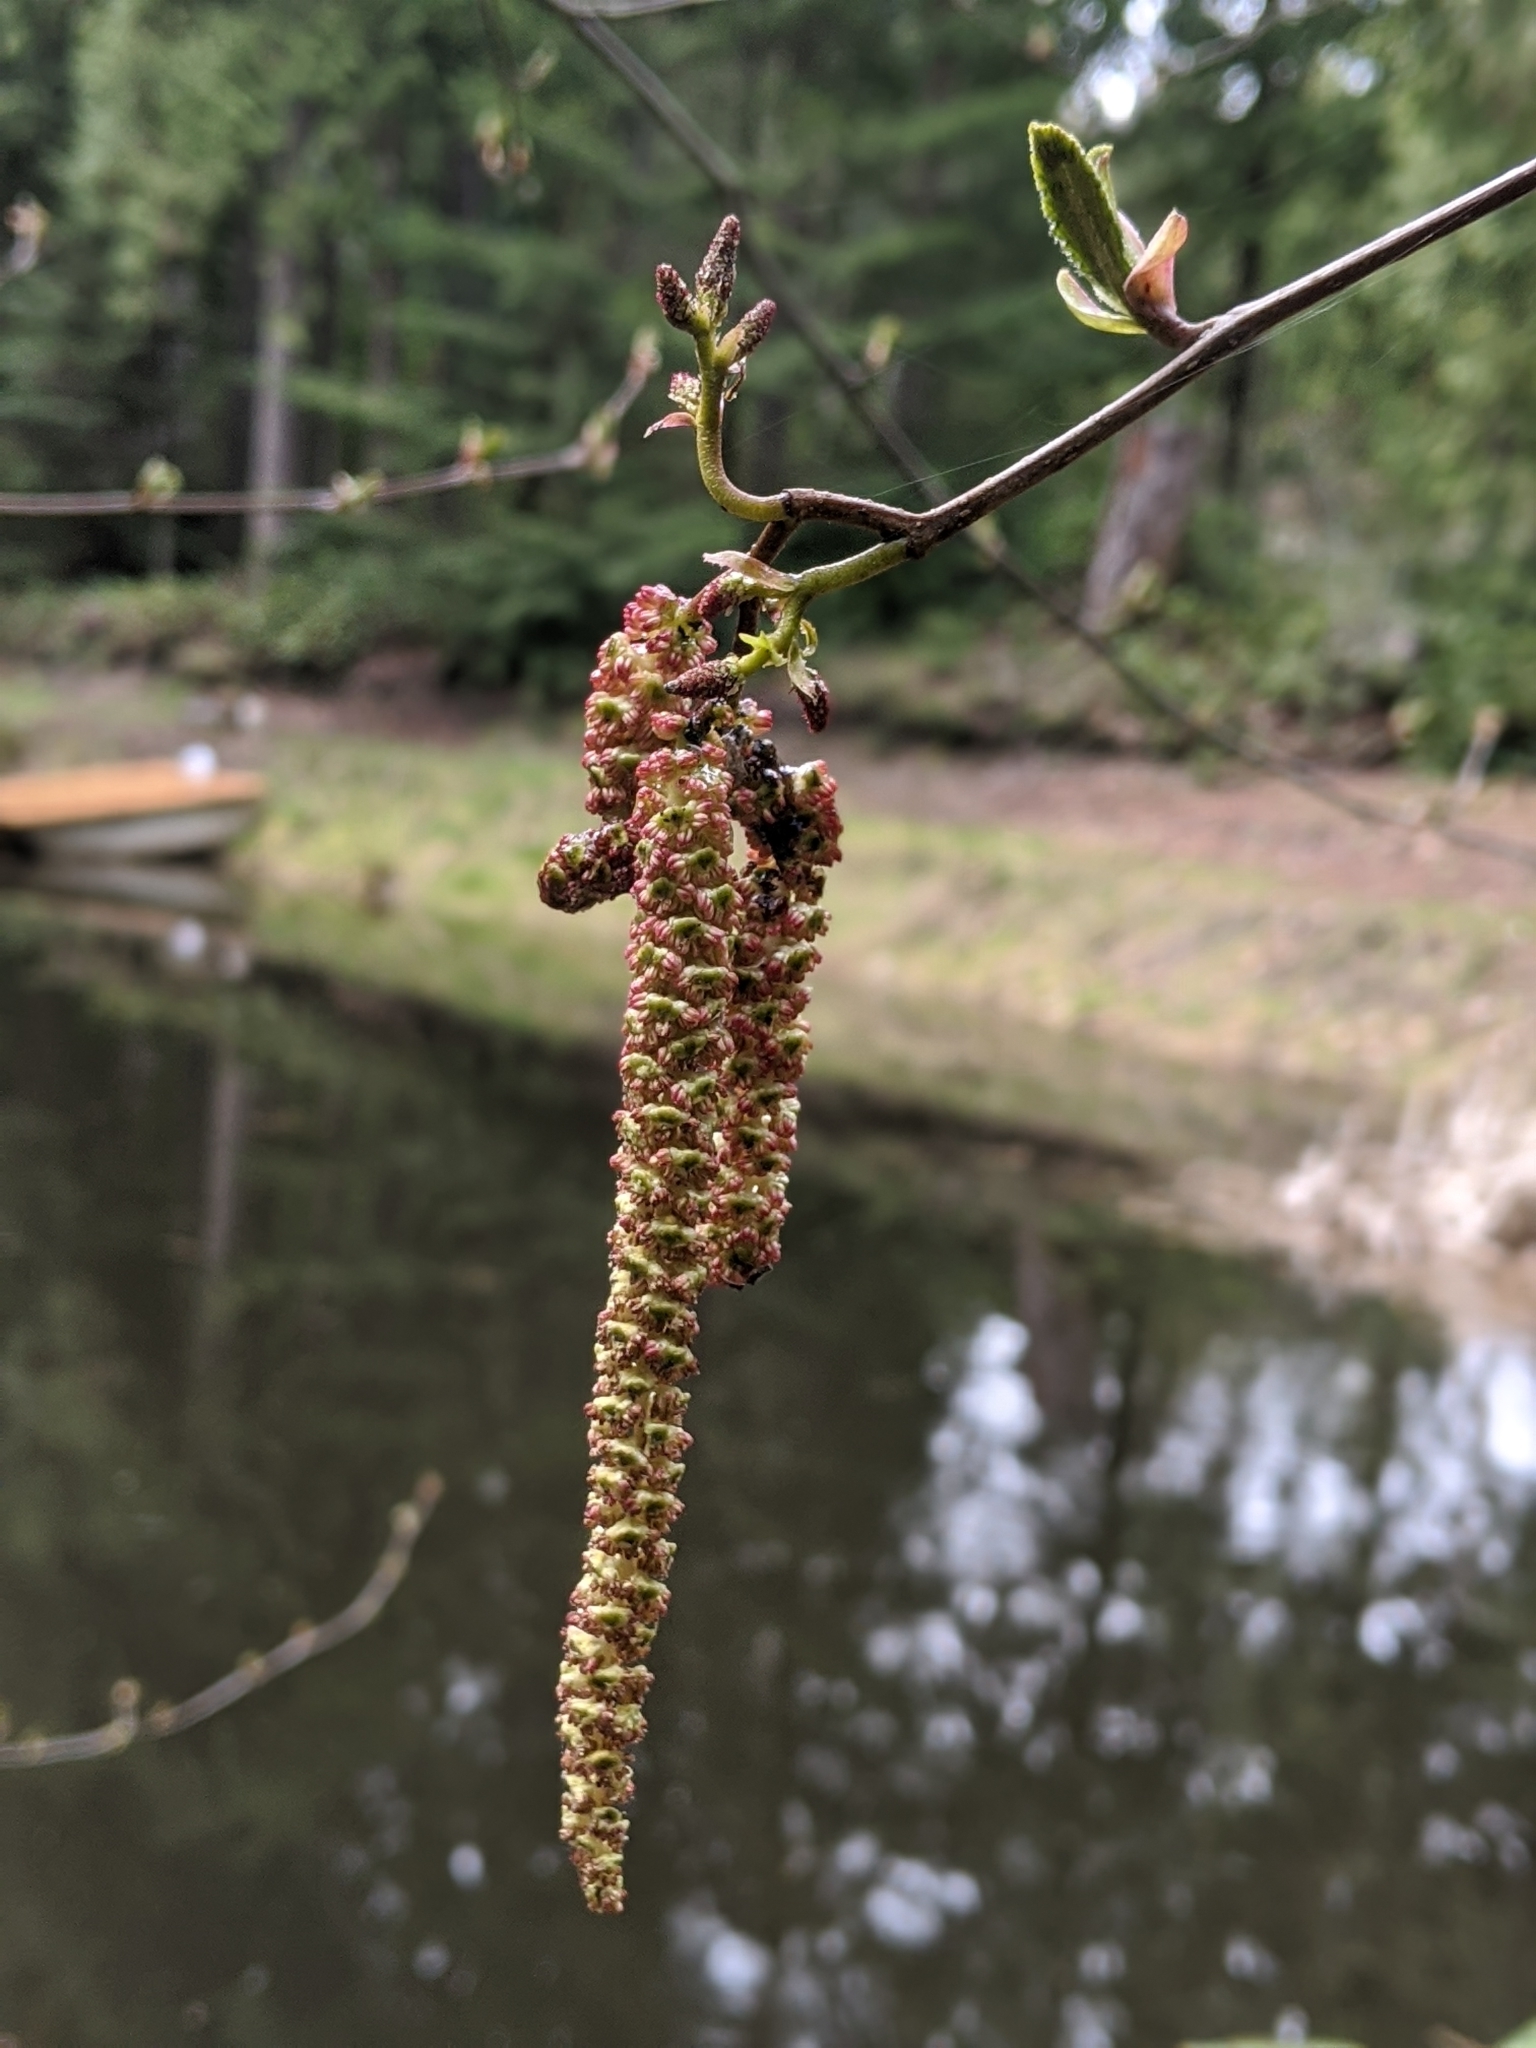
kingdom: Plantae
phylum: Tracheophyta
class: Magnoliopsida
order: Fagales
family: Betulaceae
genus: Alnus
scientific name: Alnus rubra
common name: Red alder
